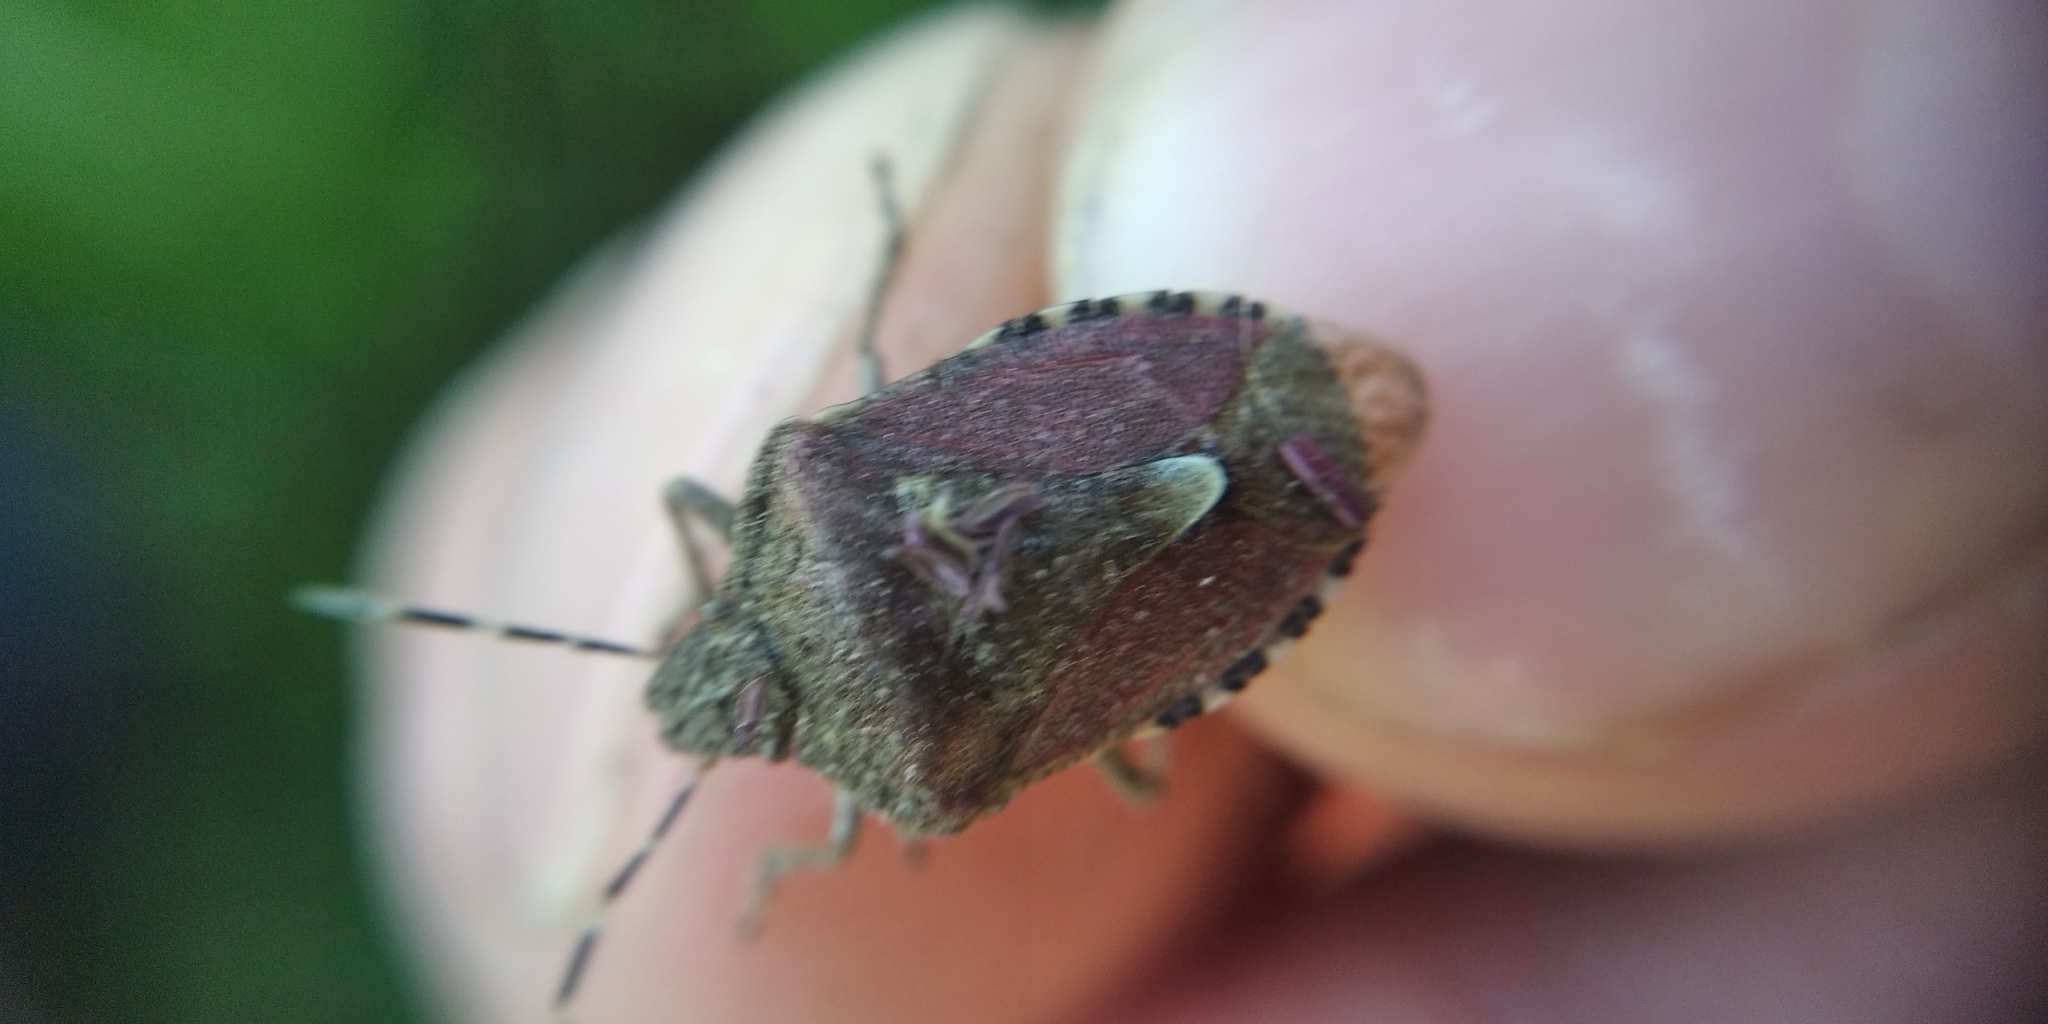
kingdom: Animalia
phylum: Arthropoda
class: Insecta
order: Hemiptera
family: Pentatomidae
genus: Dolycoris
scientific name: Dolycoris baccarum
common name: Sloe bug
